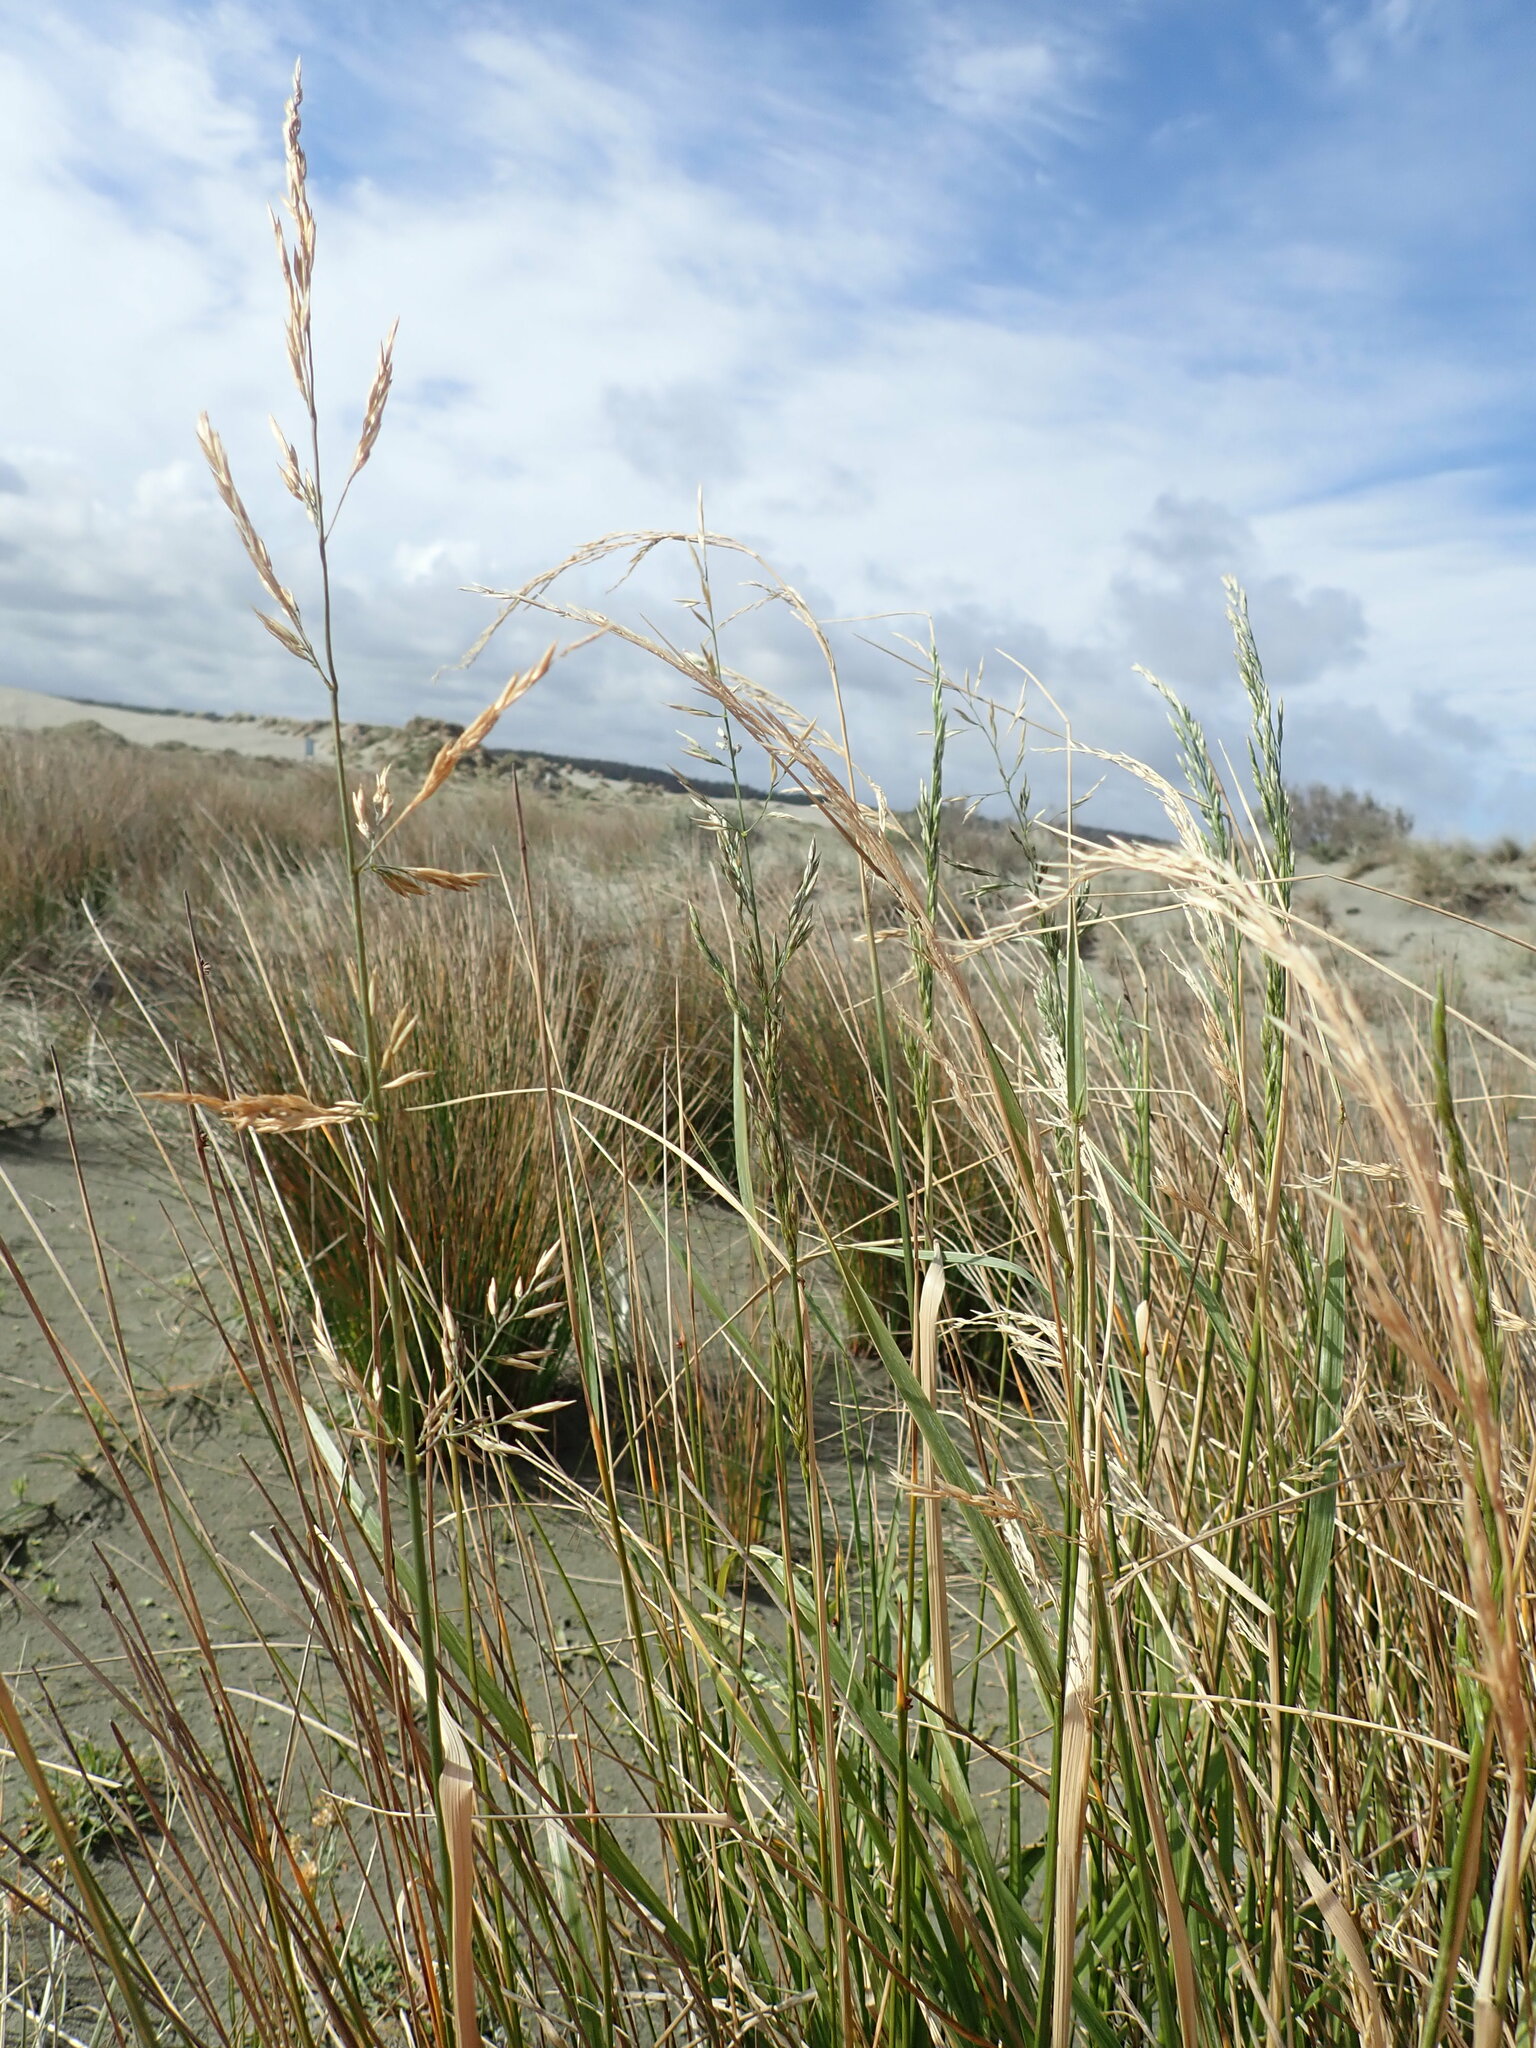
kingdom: Plantae
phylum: Tracheophyta
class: Liliopsida
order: Poales
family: Poaceae
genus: Lolium
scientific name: Lolium arundinaceum
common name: Reed fescue
